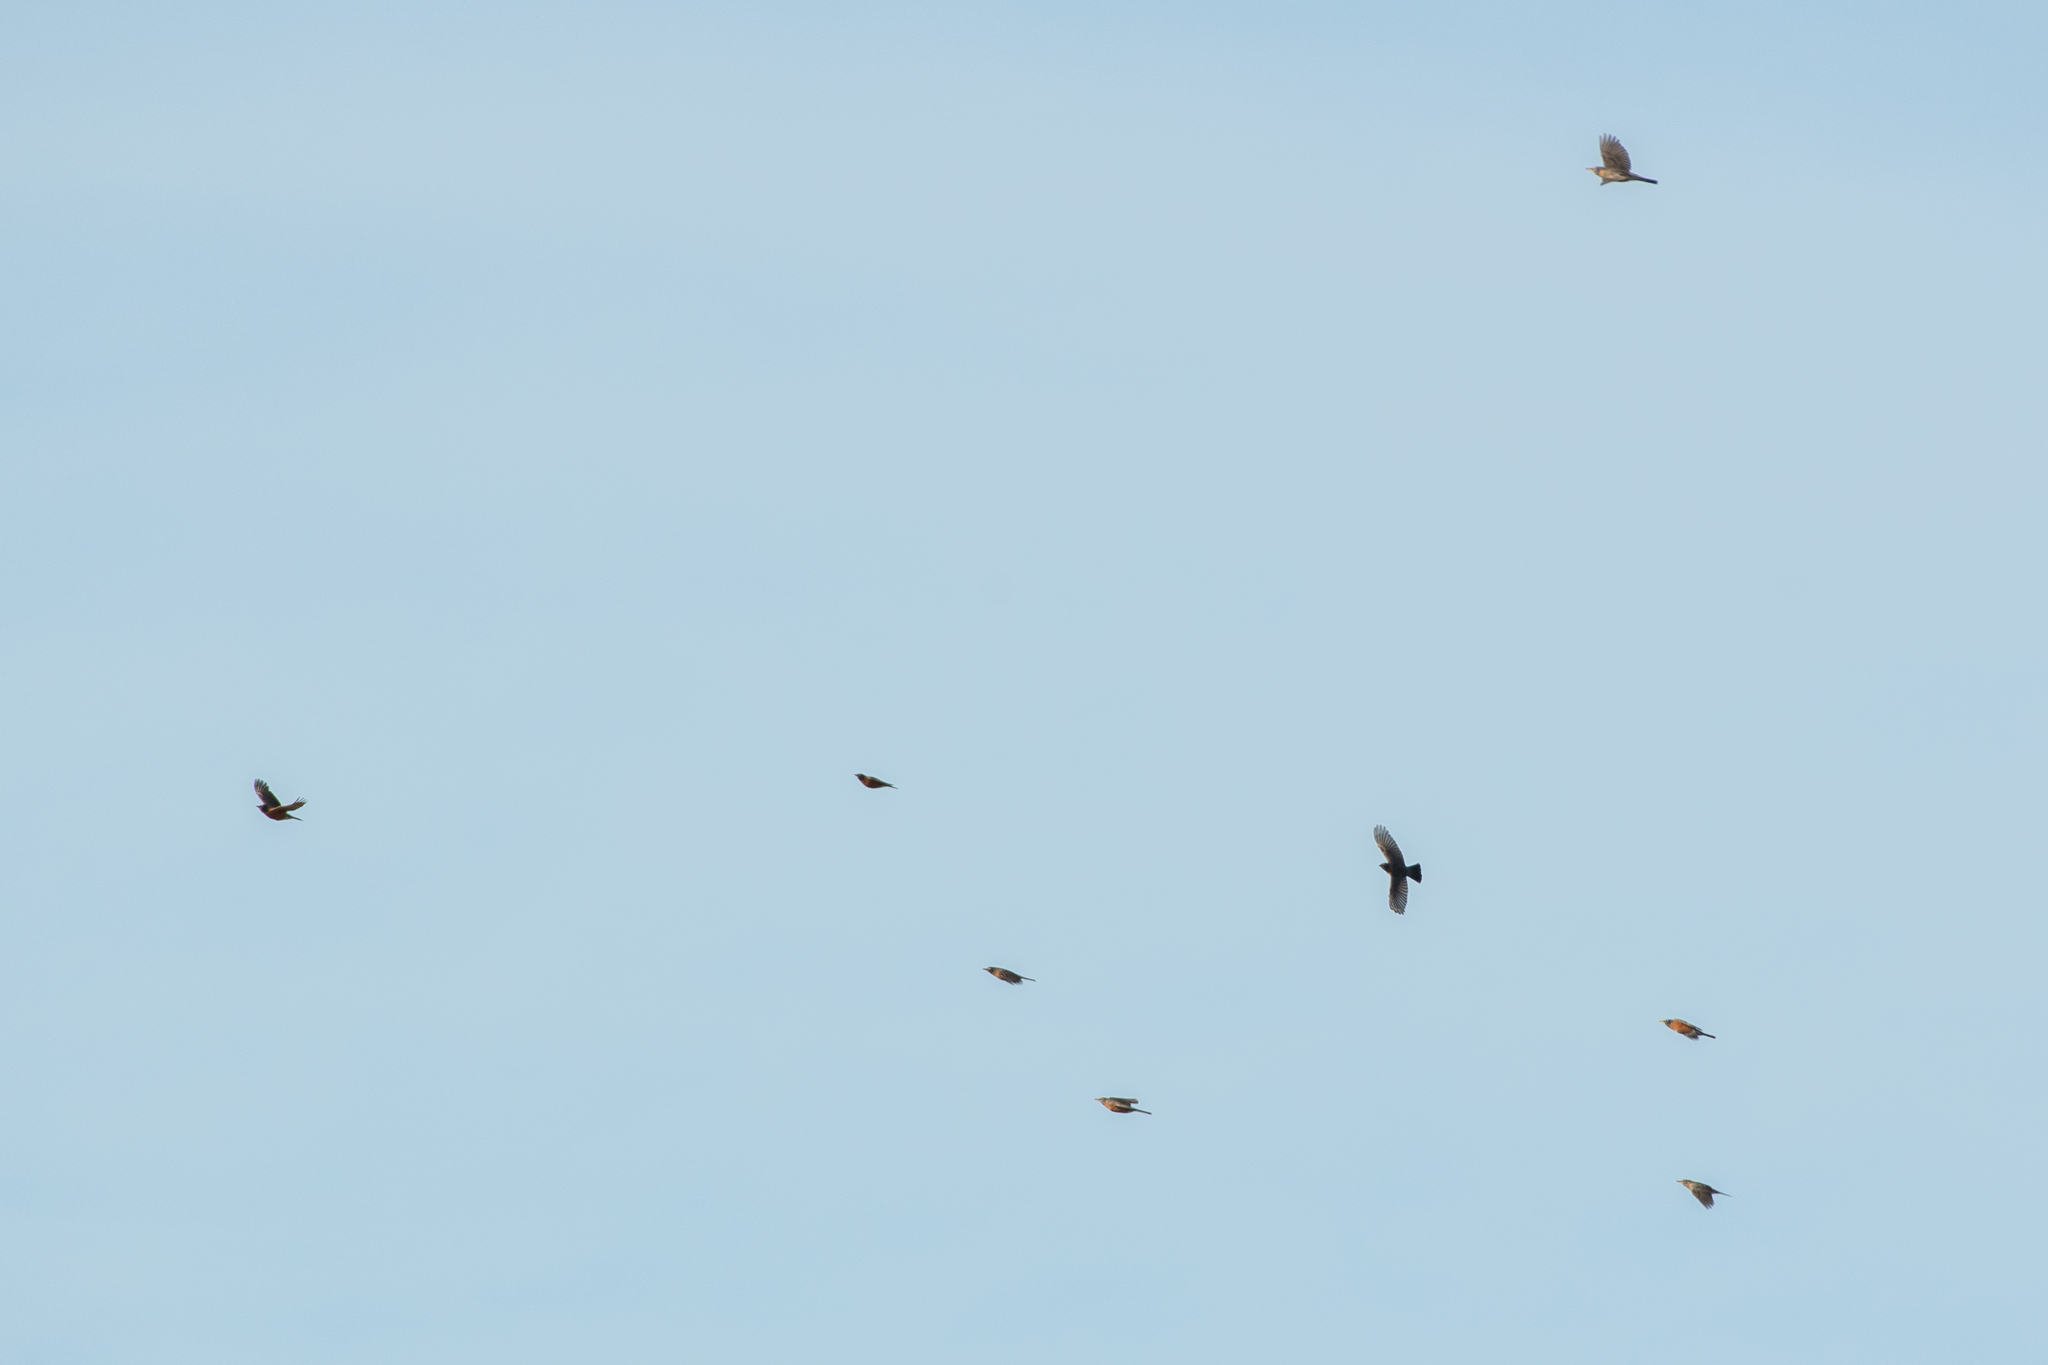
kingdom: Animalia
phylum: Chordata
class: Aves
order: Passeriformes
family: Turdidae
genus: Turdus
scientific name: Turdus migratorius
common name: American robin
